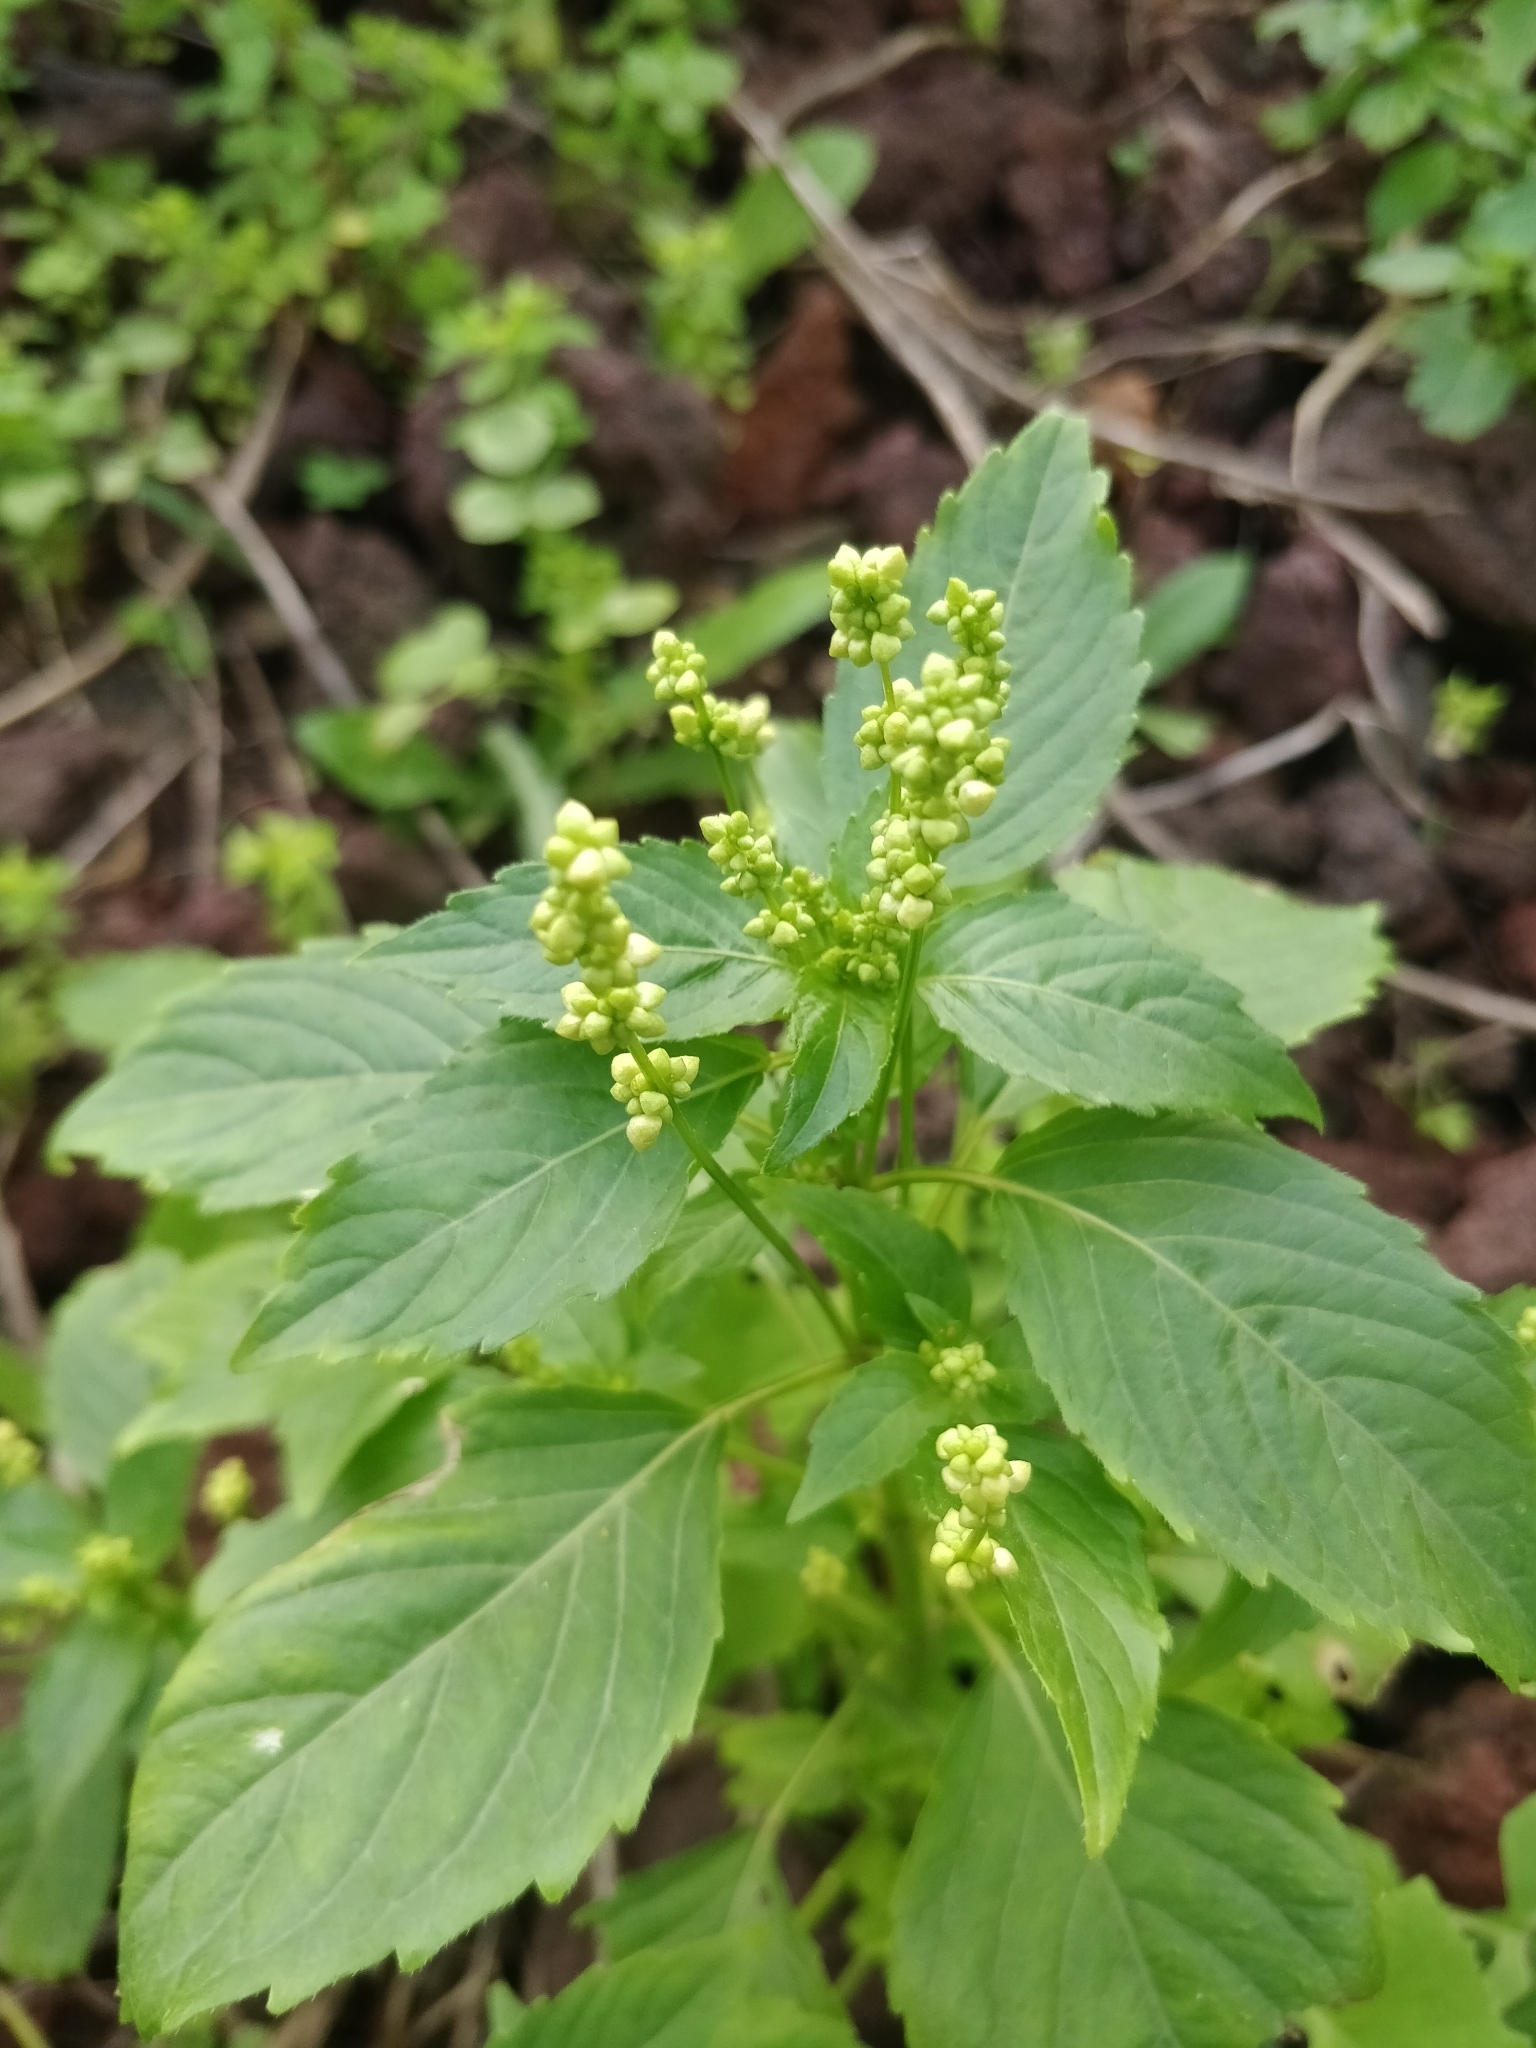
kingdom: Plantae
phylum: Tracheophyta
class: Magnoliopsida
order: Malpighiales
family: Euphorbiaceae
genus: Mercurialis
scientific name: Mercurialis annua
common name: Annual mercury
